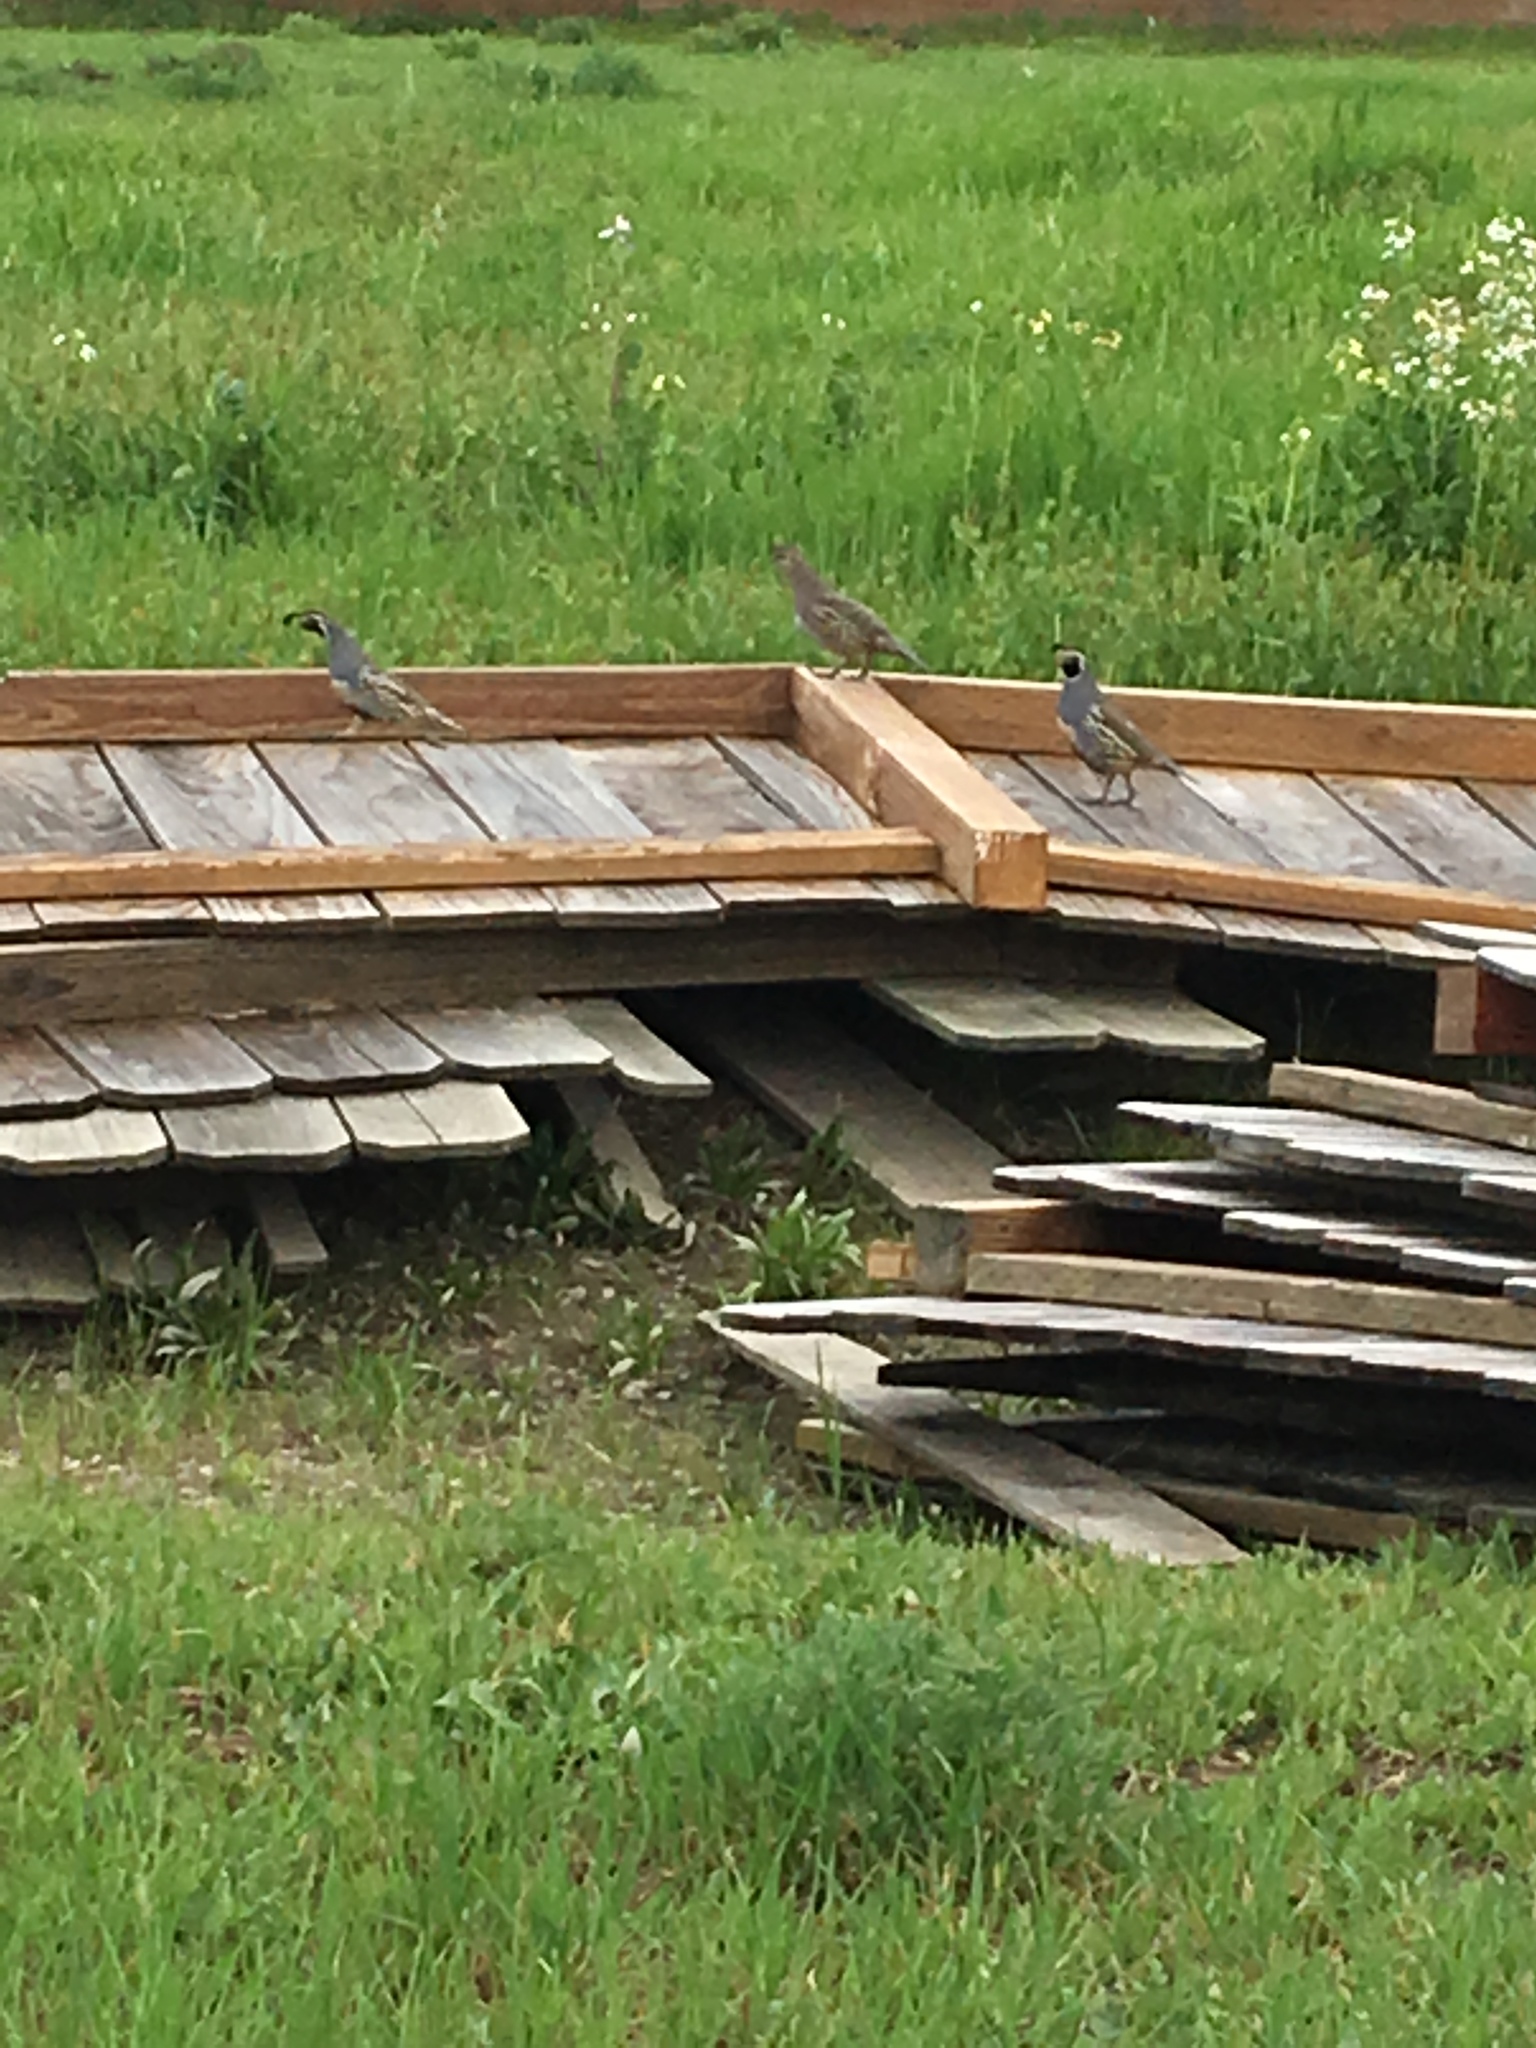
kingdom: Animalia
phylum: Chordata
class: Aves
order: Galliformes
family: Odontophoridae
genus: Callipepla
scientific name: Callipepla californica
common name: California quail
